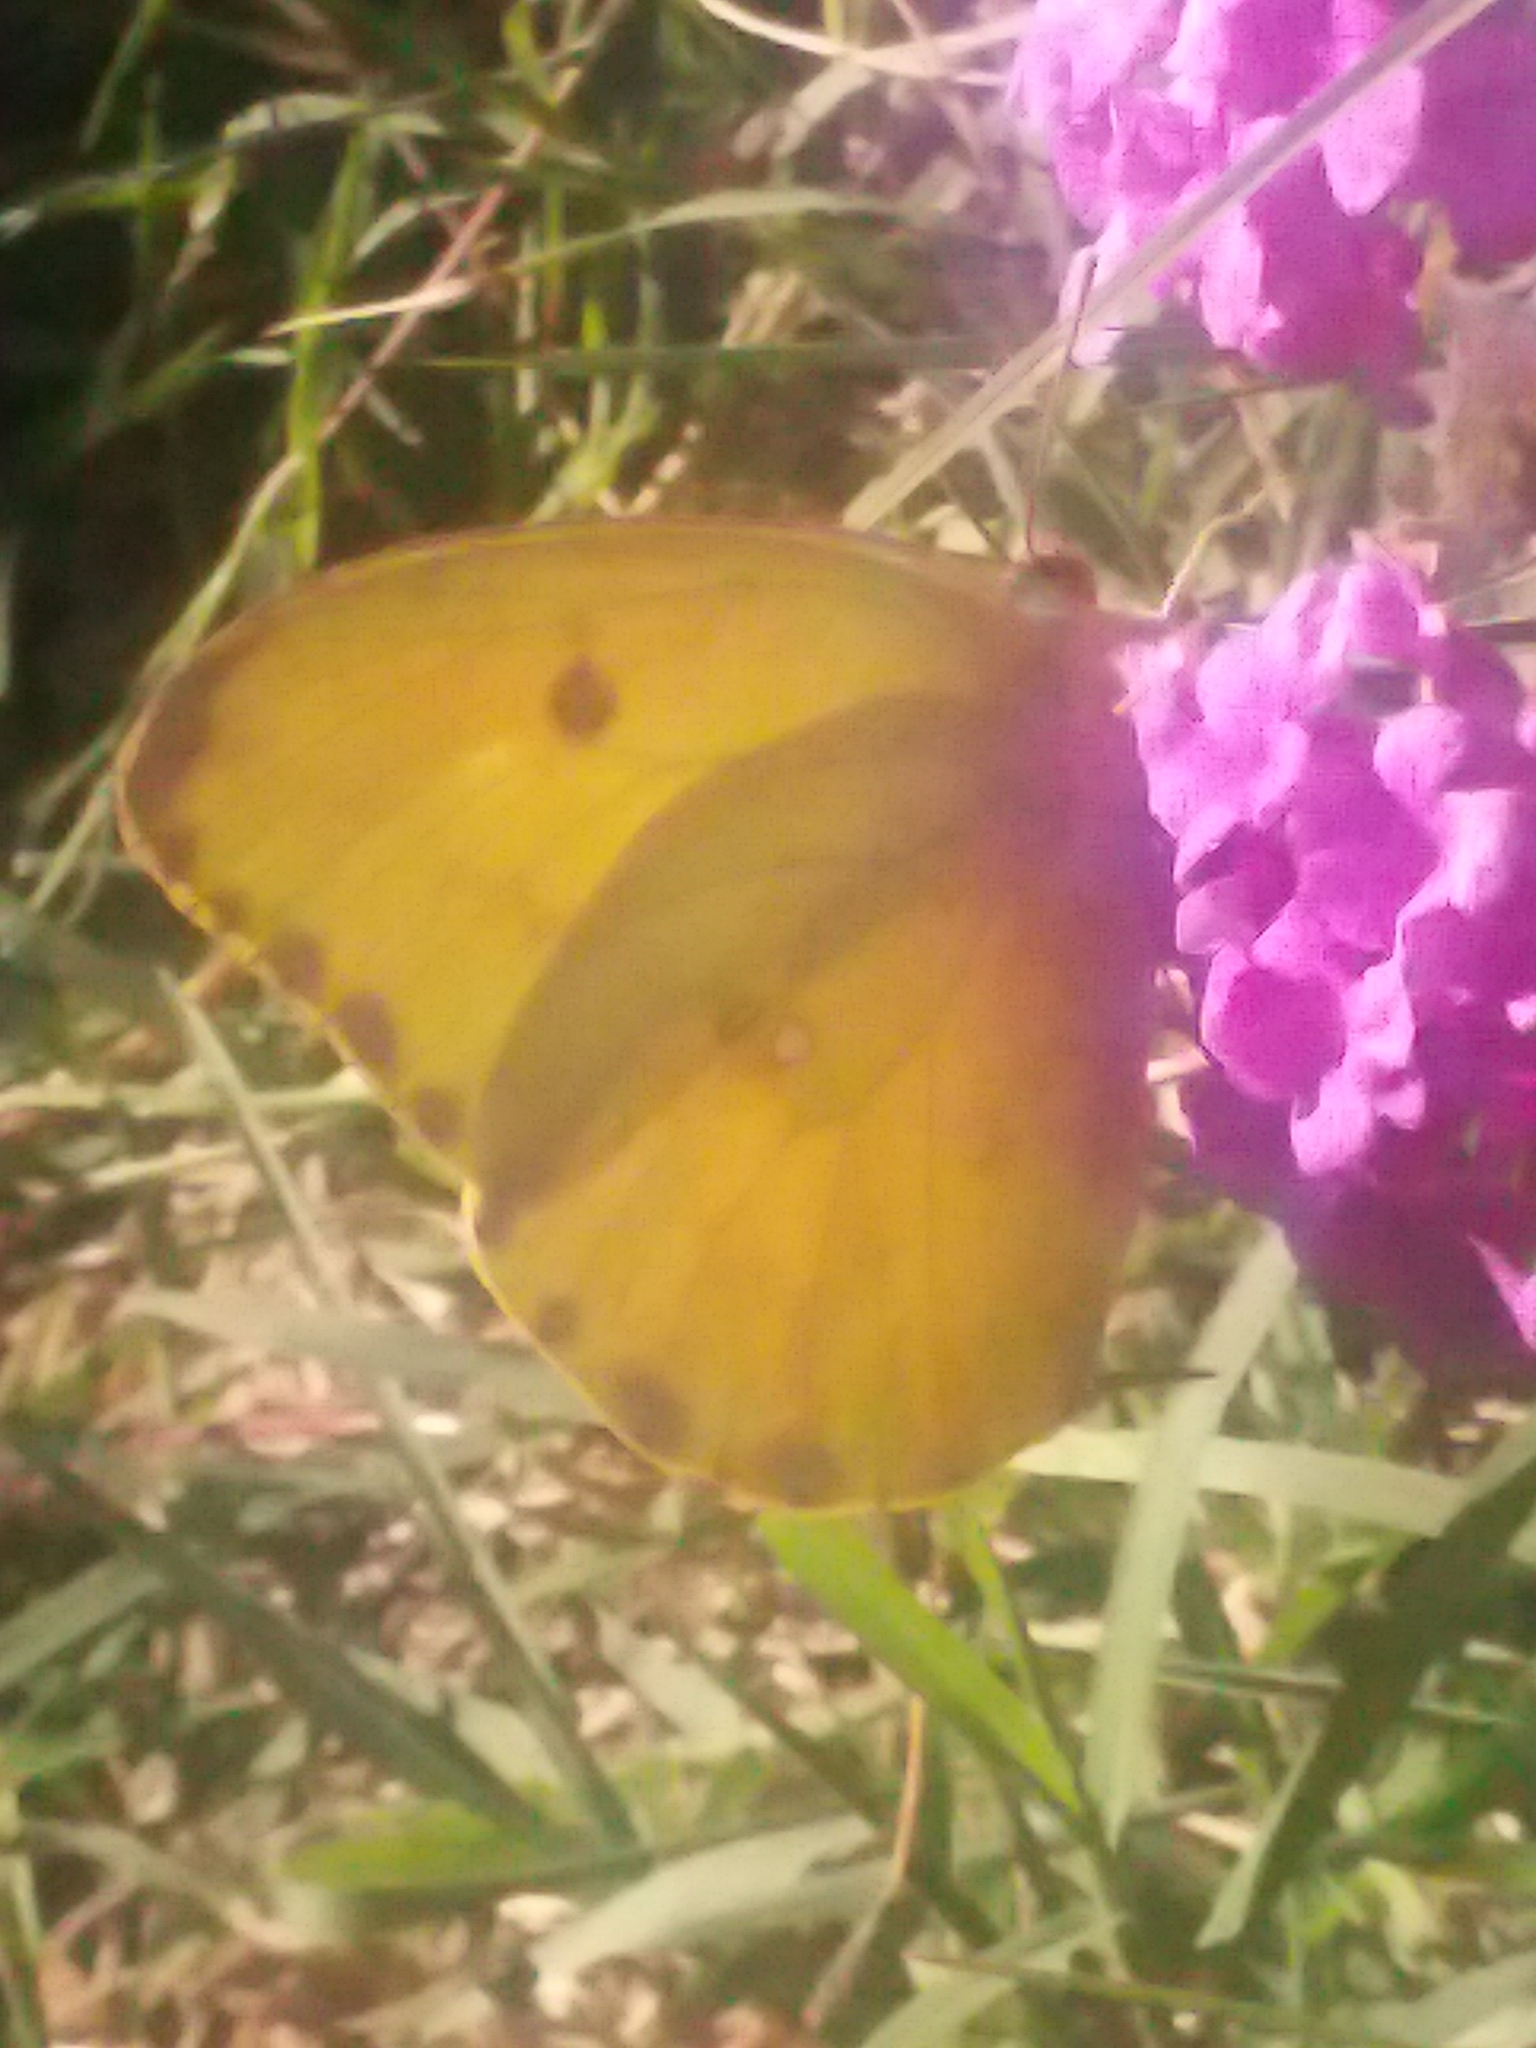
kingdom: Animalia
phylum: Arthropoda
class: Insecta
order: Lepidoptera
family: Pieridae
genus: Phoebis
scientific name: Phoebis agarithe
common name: Large orange sulphur
